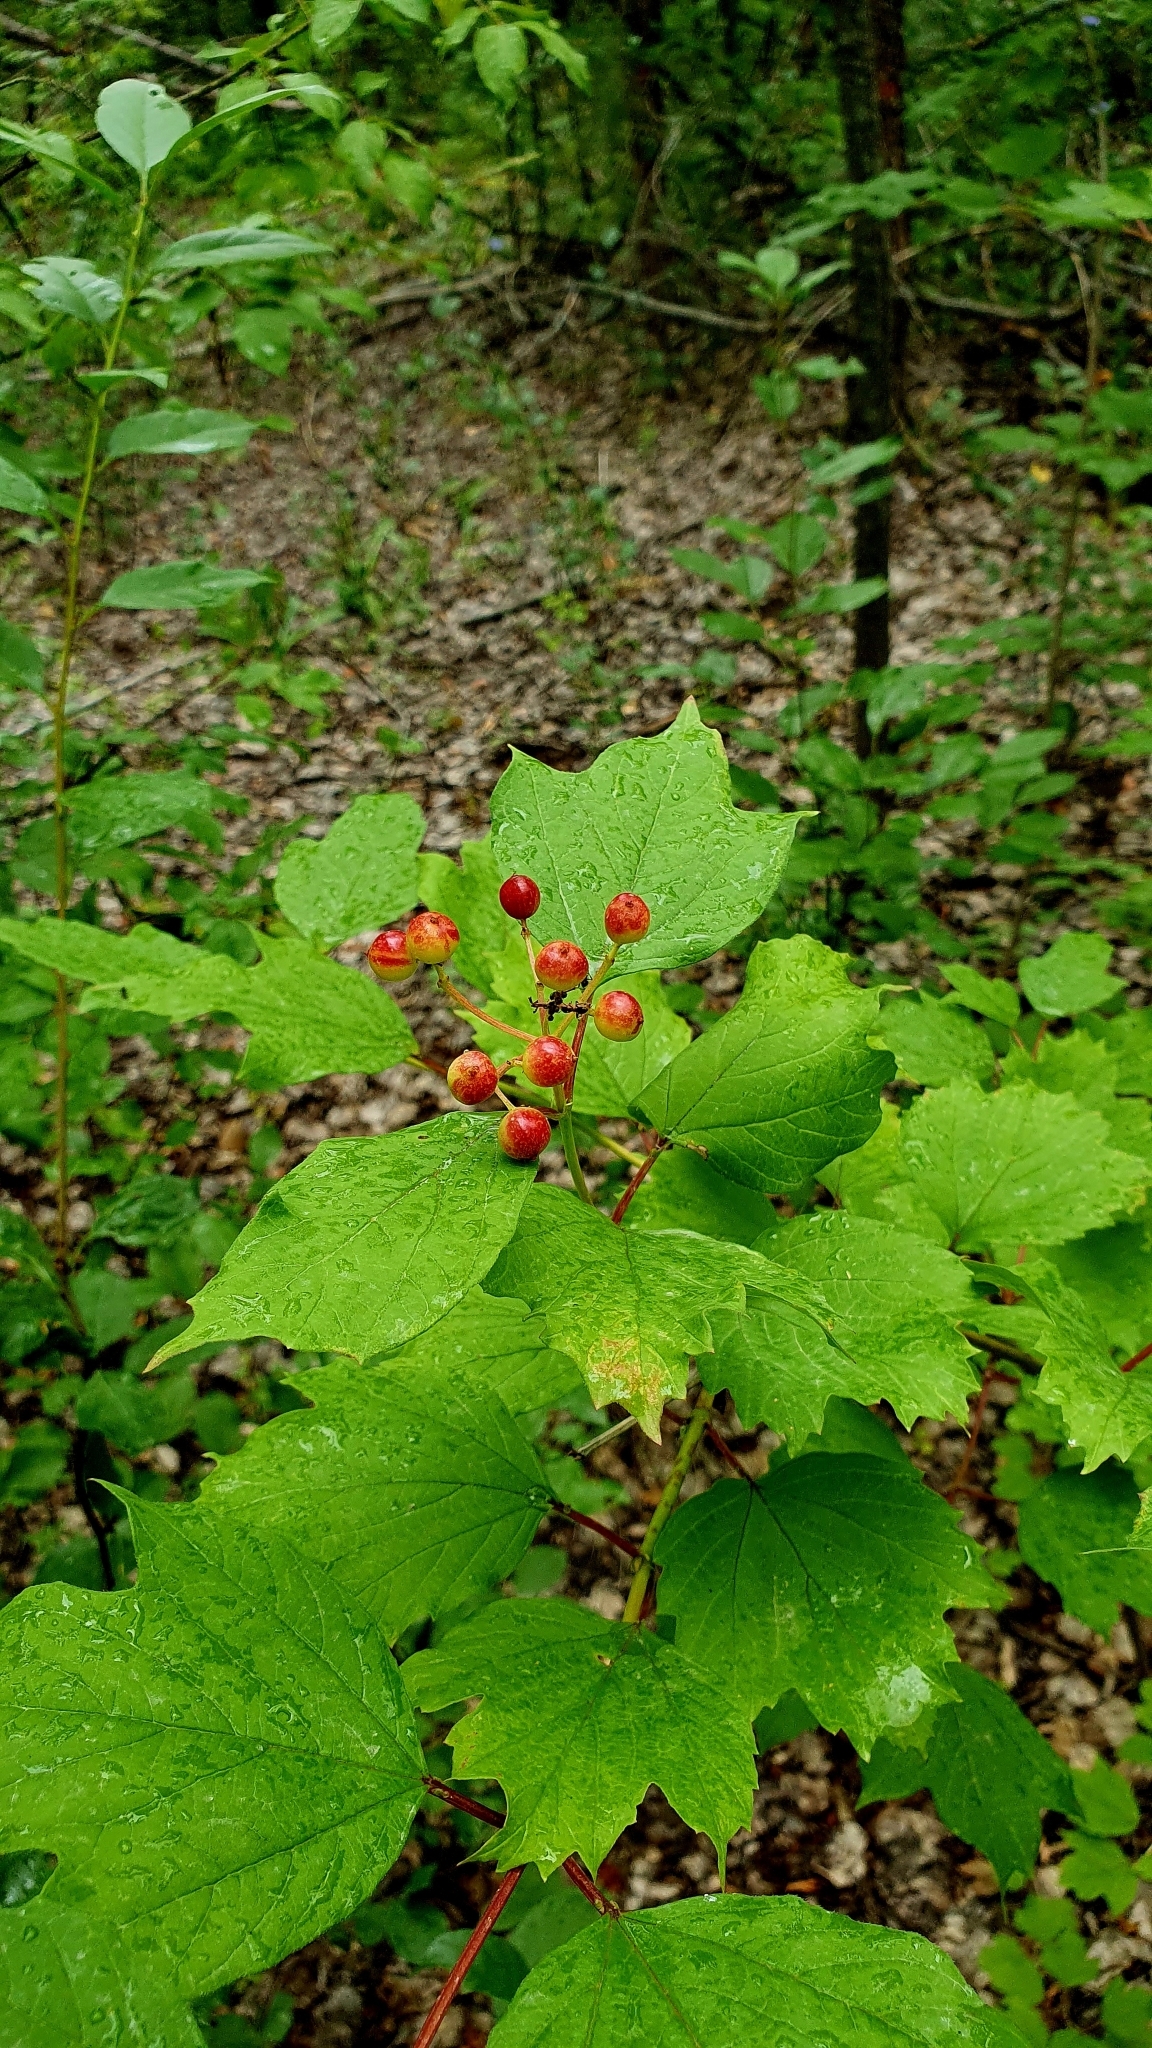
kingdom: Plantae
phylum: Tracheophyta
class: Magnoliopsida
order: Dipsacales
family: Viburnaceae
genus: Viburnum
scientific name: Viburnum opulus
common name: Guelder-rose
